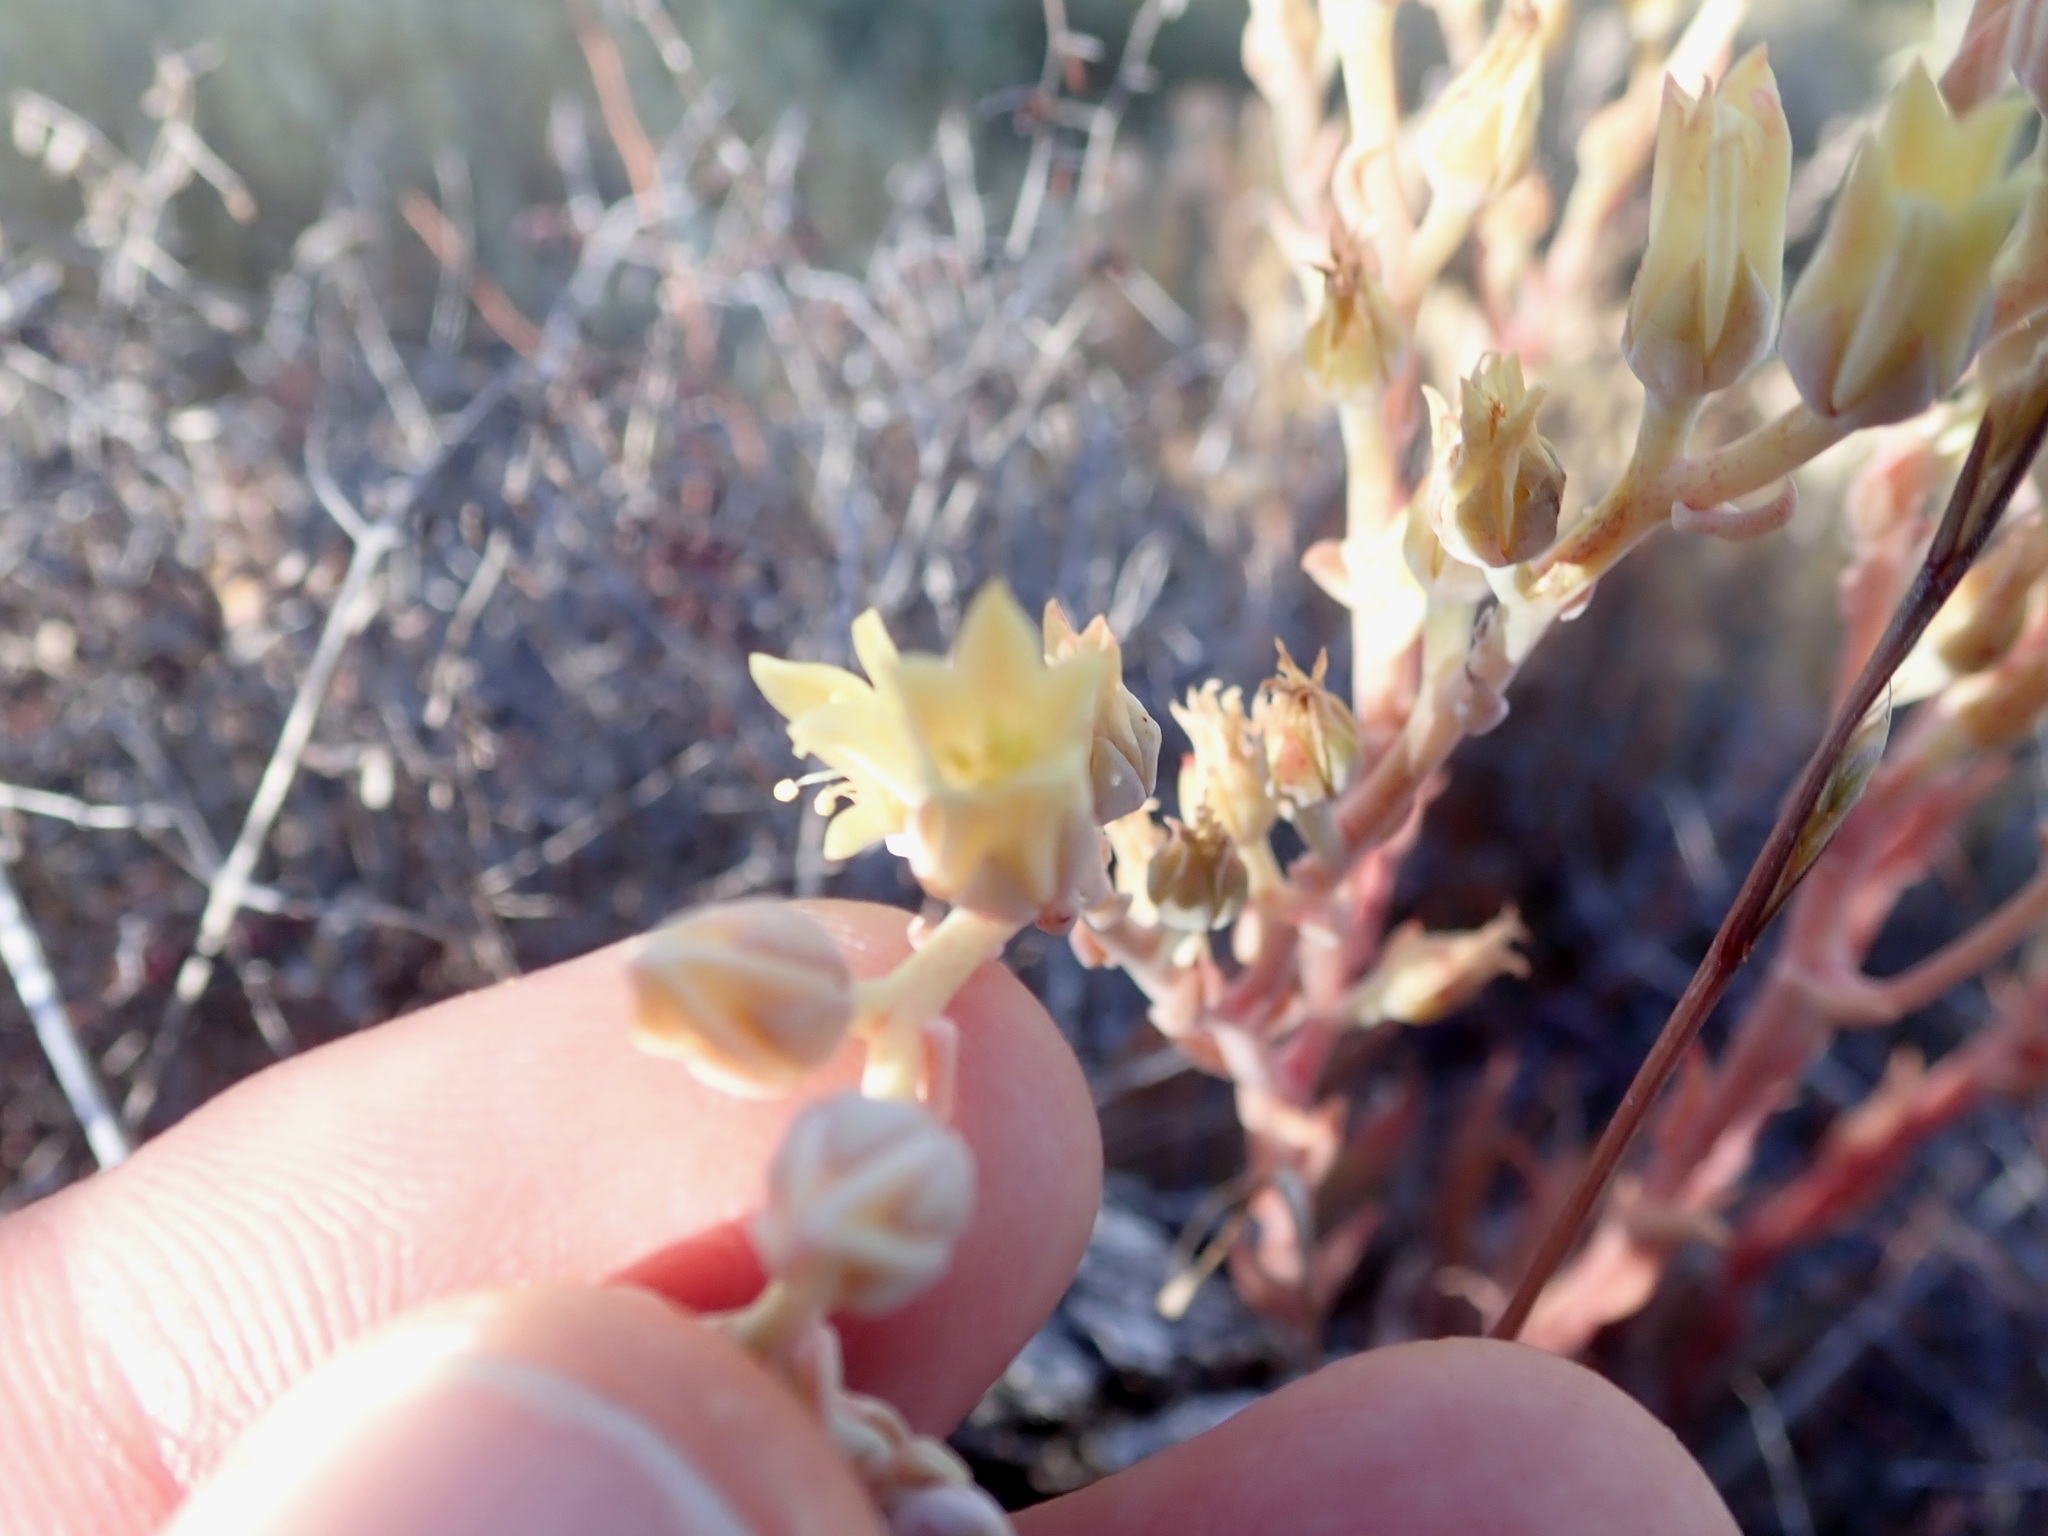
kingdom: Plantae
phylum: Tracheophyta
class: Magnoliopsida
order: Saxifragales
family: Crassulaceae
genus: Dudleya
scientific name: Dudleya abramsii
